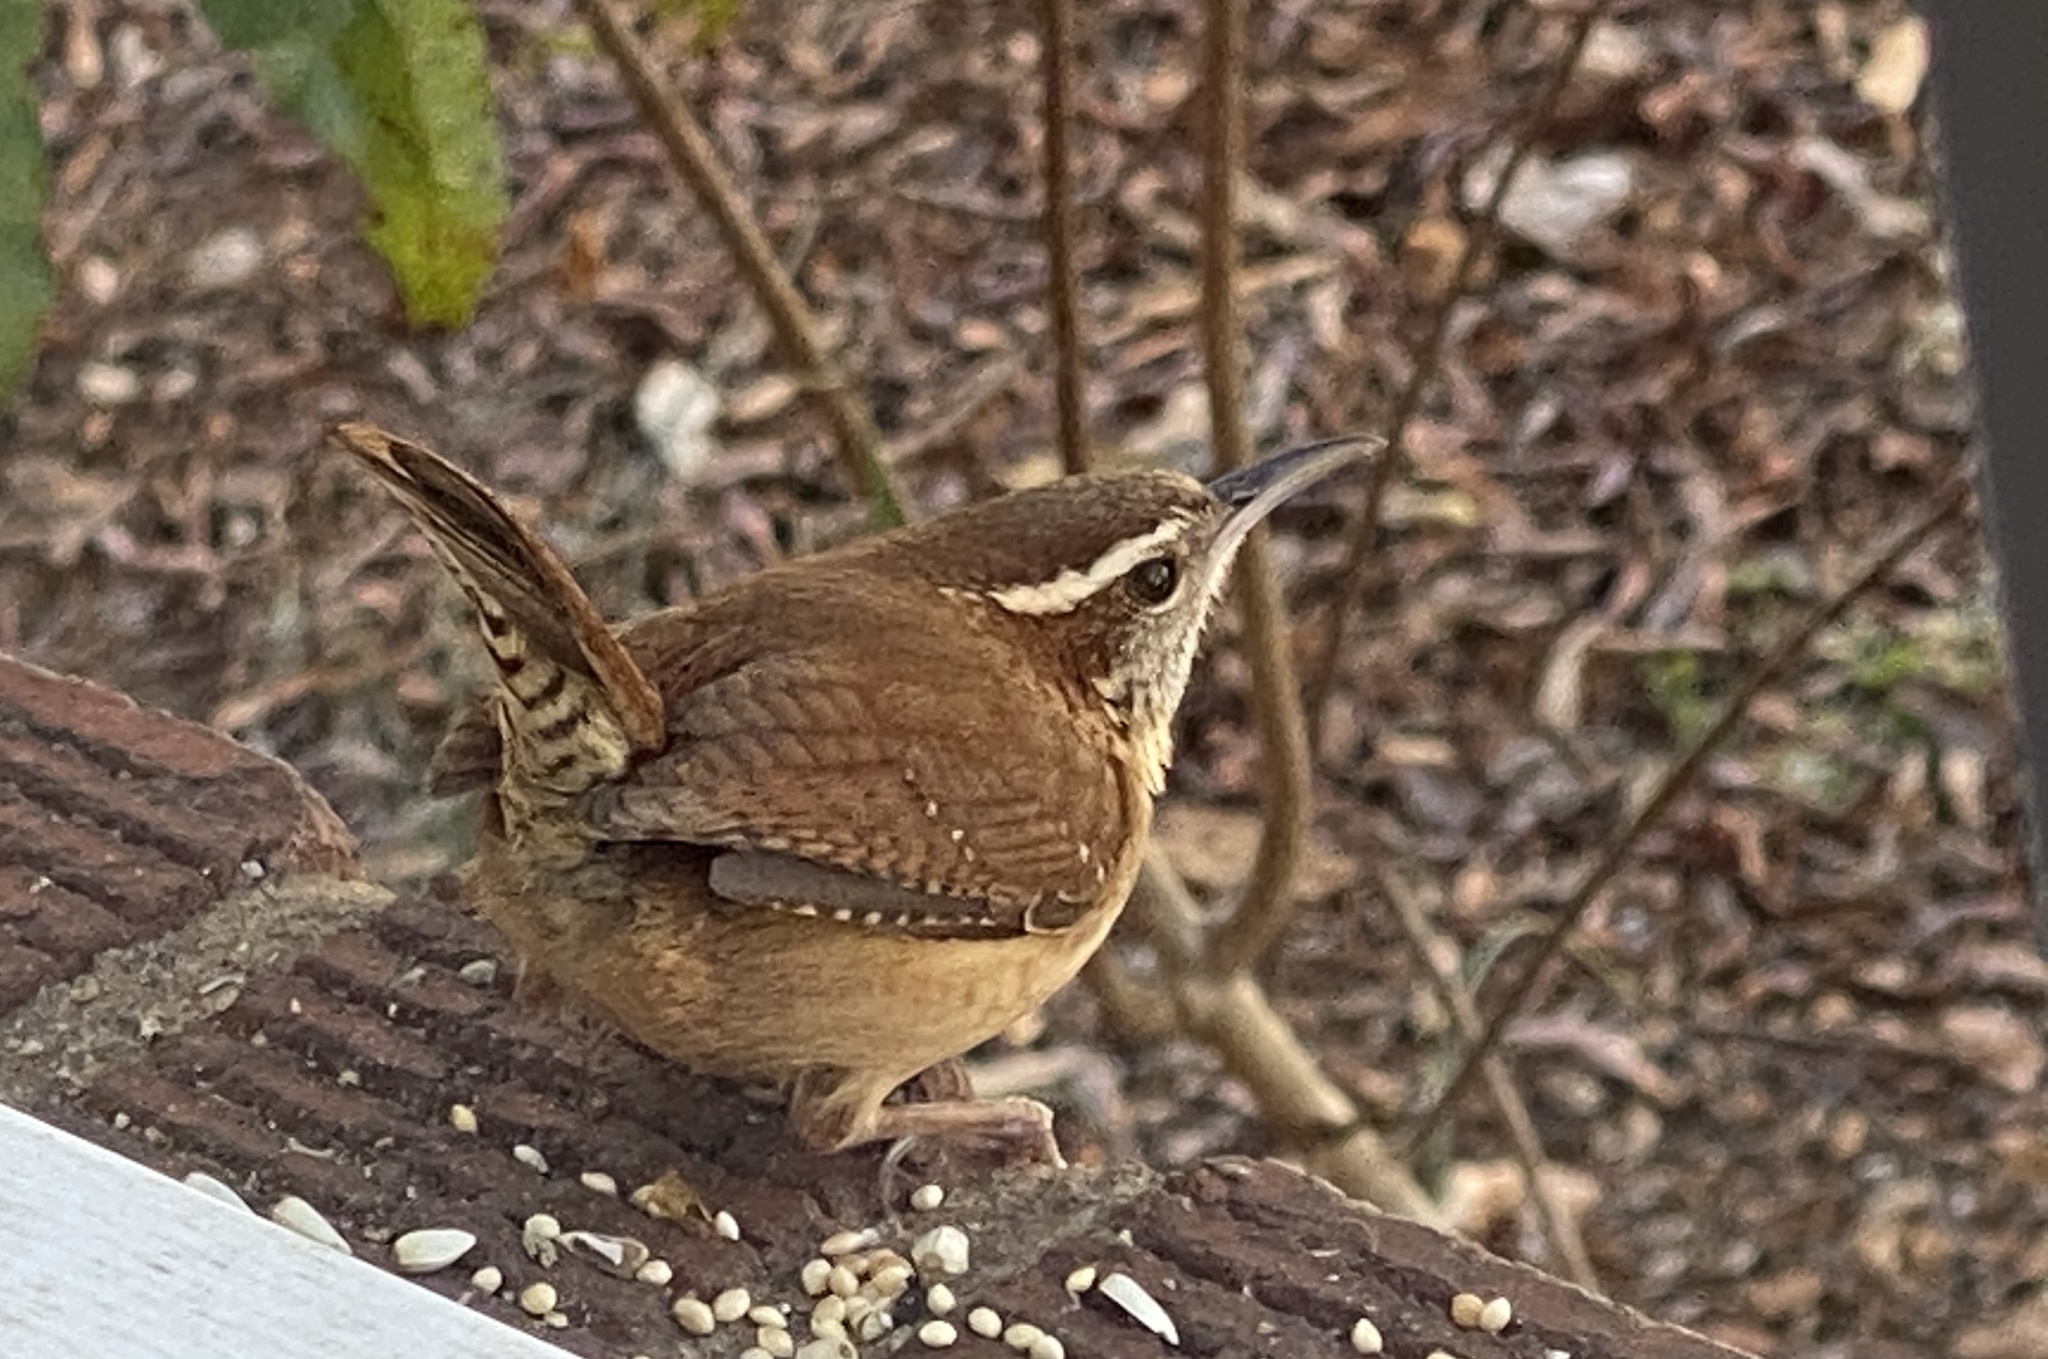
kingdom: Animalia
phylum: Chordata
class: Aves
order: Passeriformes
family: Troglodytidae
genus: Thryothorus
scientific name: Thryothorus ludovicianus
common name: Carolina wren
